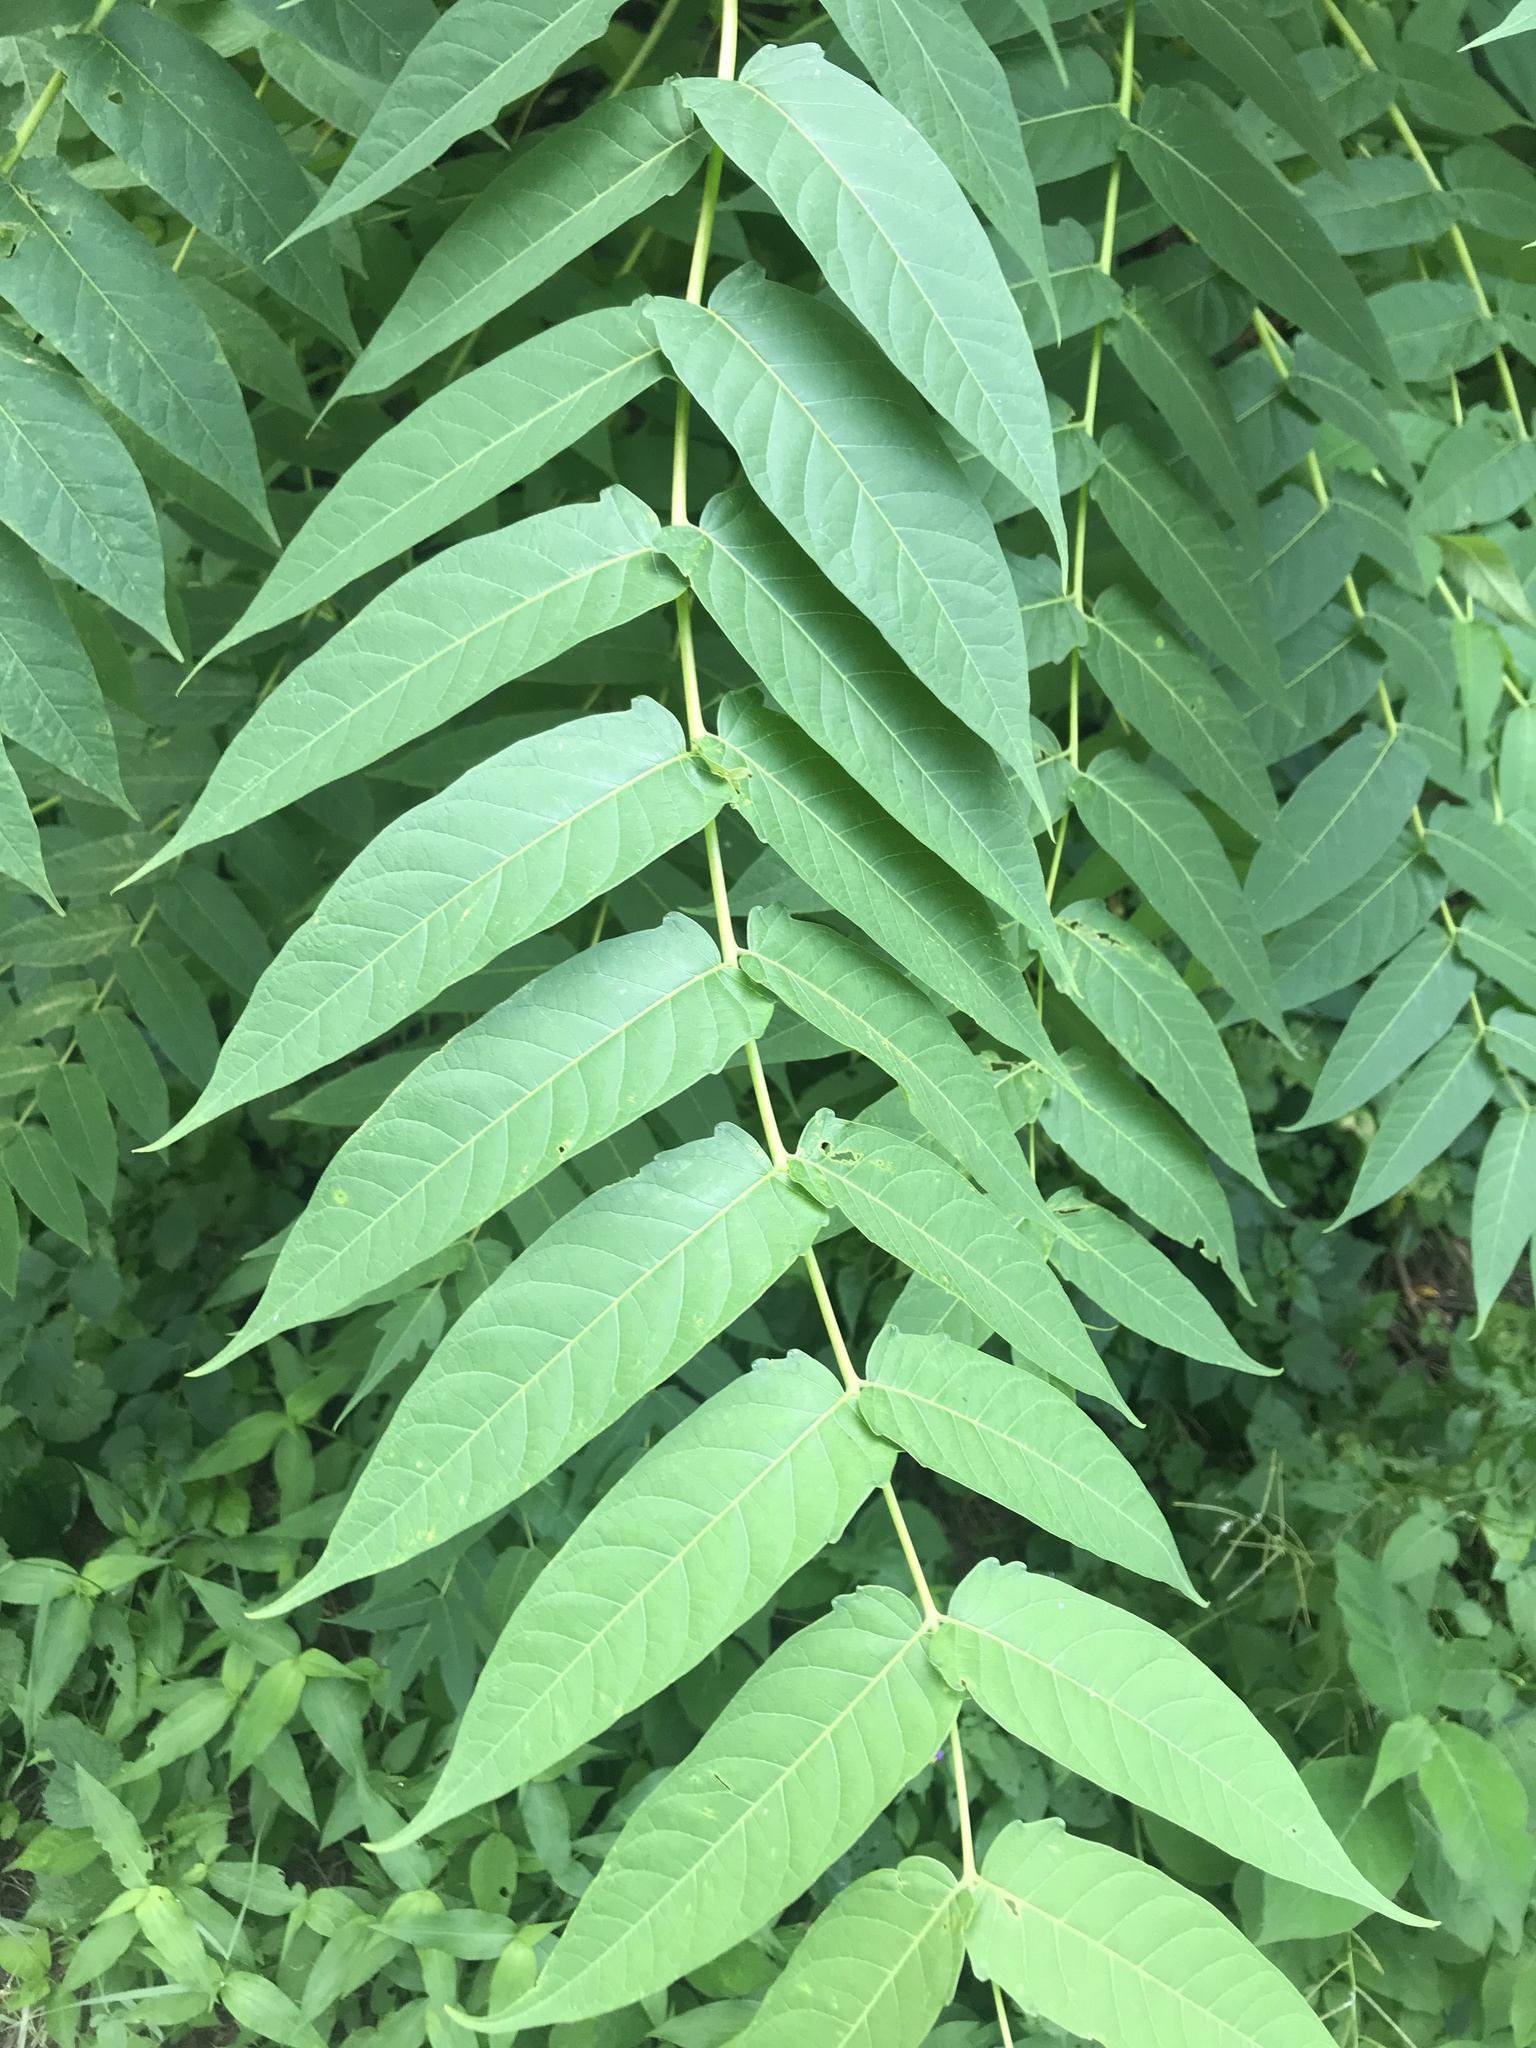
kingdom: Plantae
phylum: Tracheophyta
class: Magnoliopsida
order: Sapindales
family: Simaroubaceae
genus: Ailanthus
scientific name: Ailanthus altissima
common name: Tree-of-heaven
